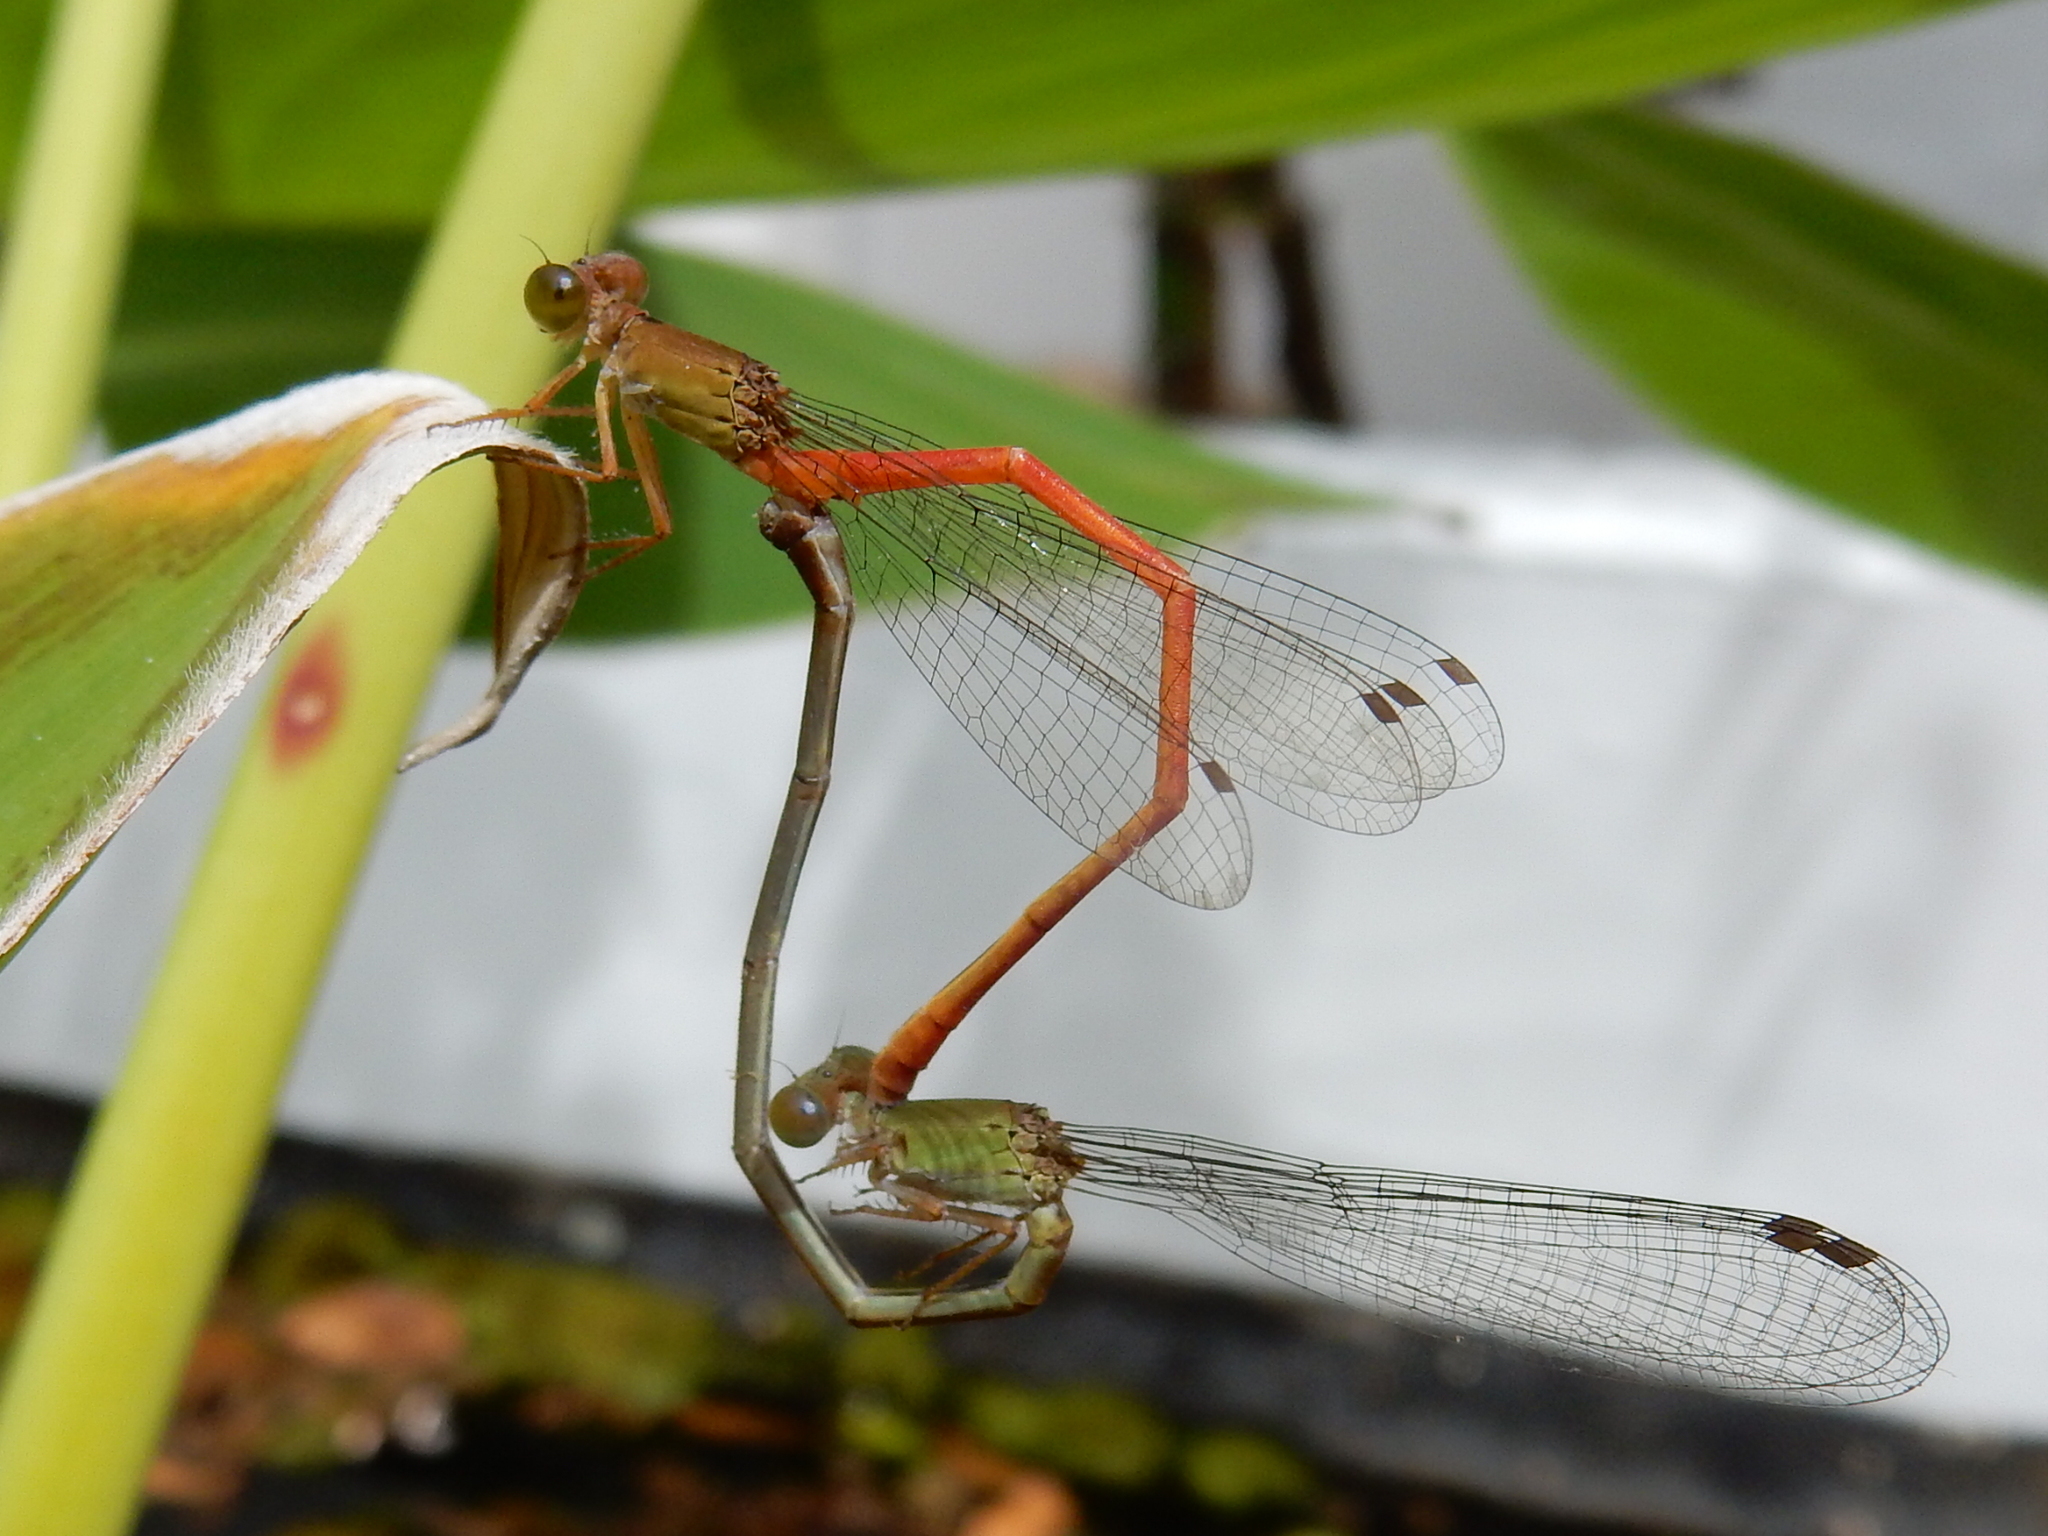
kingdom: Animalia
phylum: Arthropoda
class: Insecta
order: Odonata
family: Coenagrionidae
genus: Ceriagrion
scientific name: Ceriagrion aeruginosum
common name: Redtail
